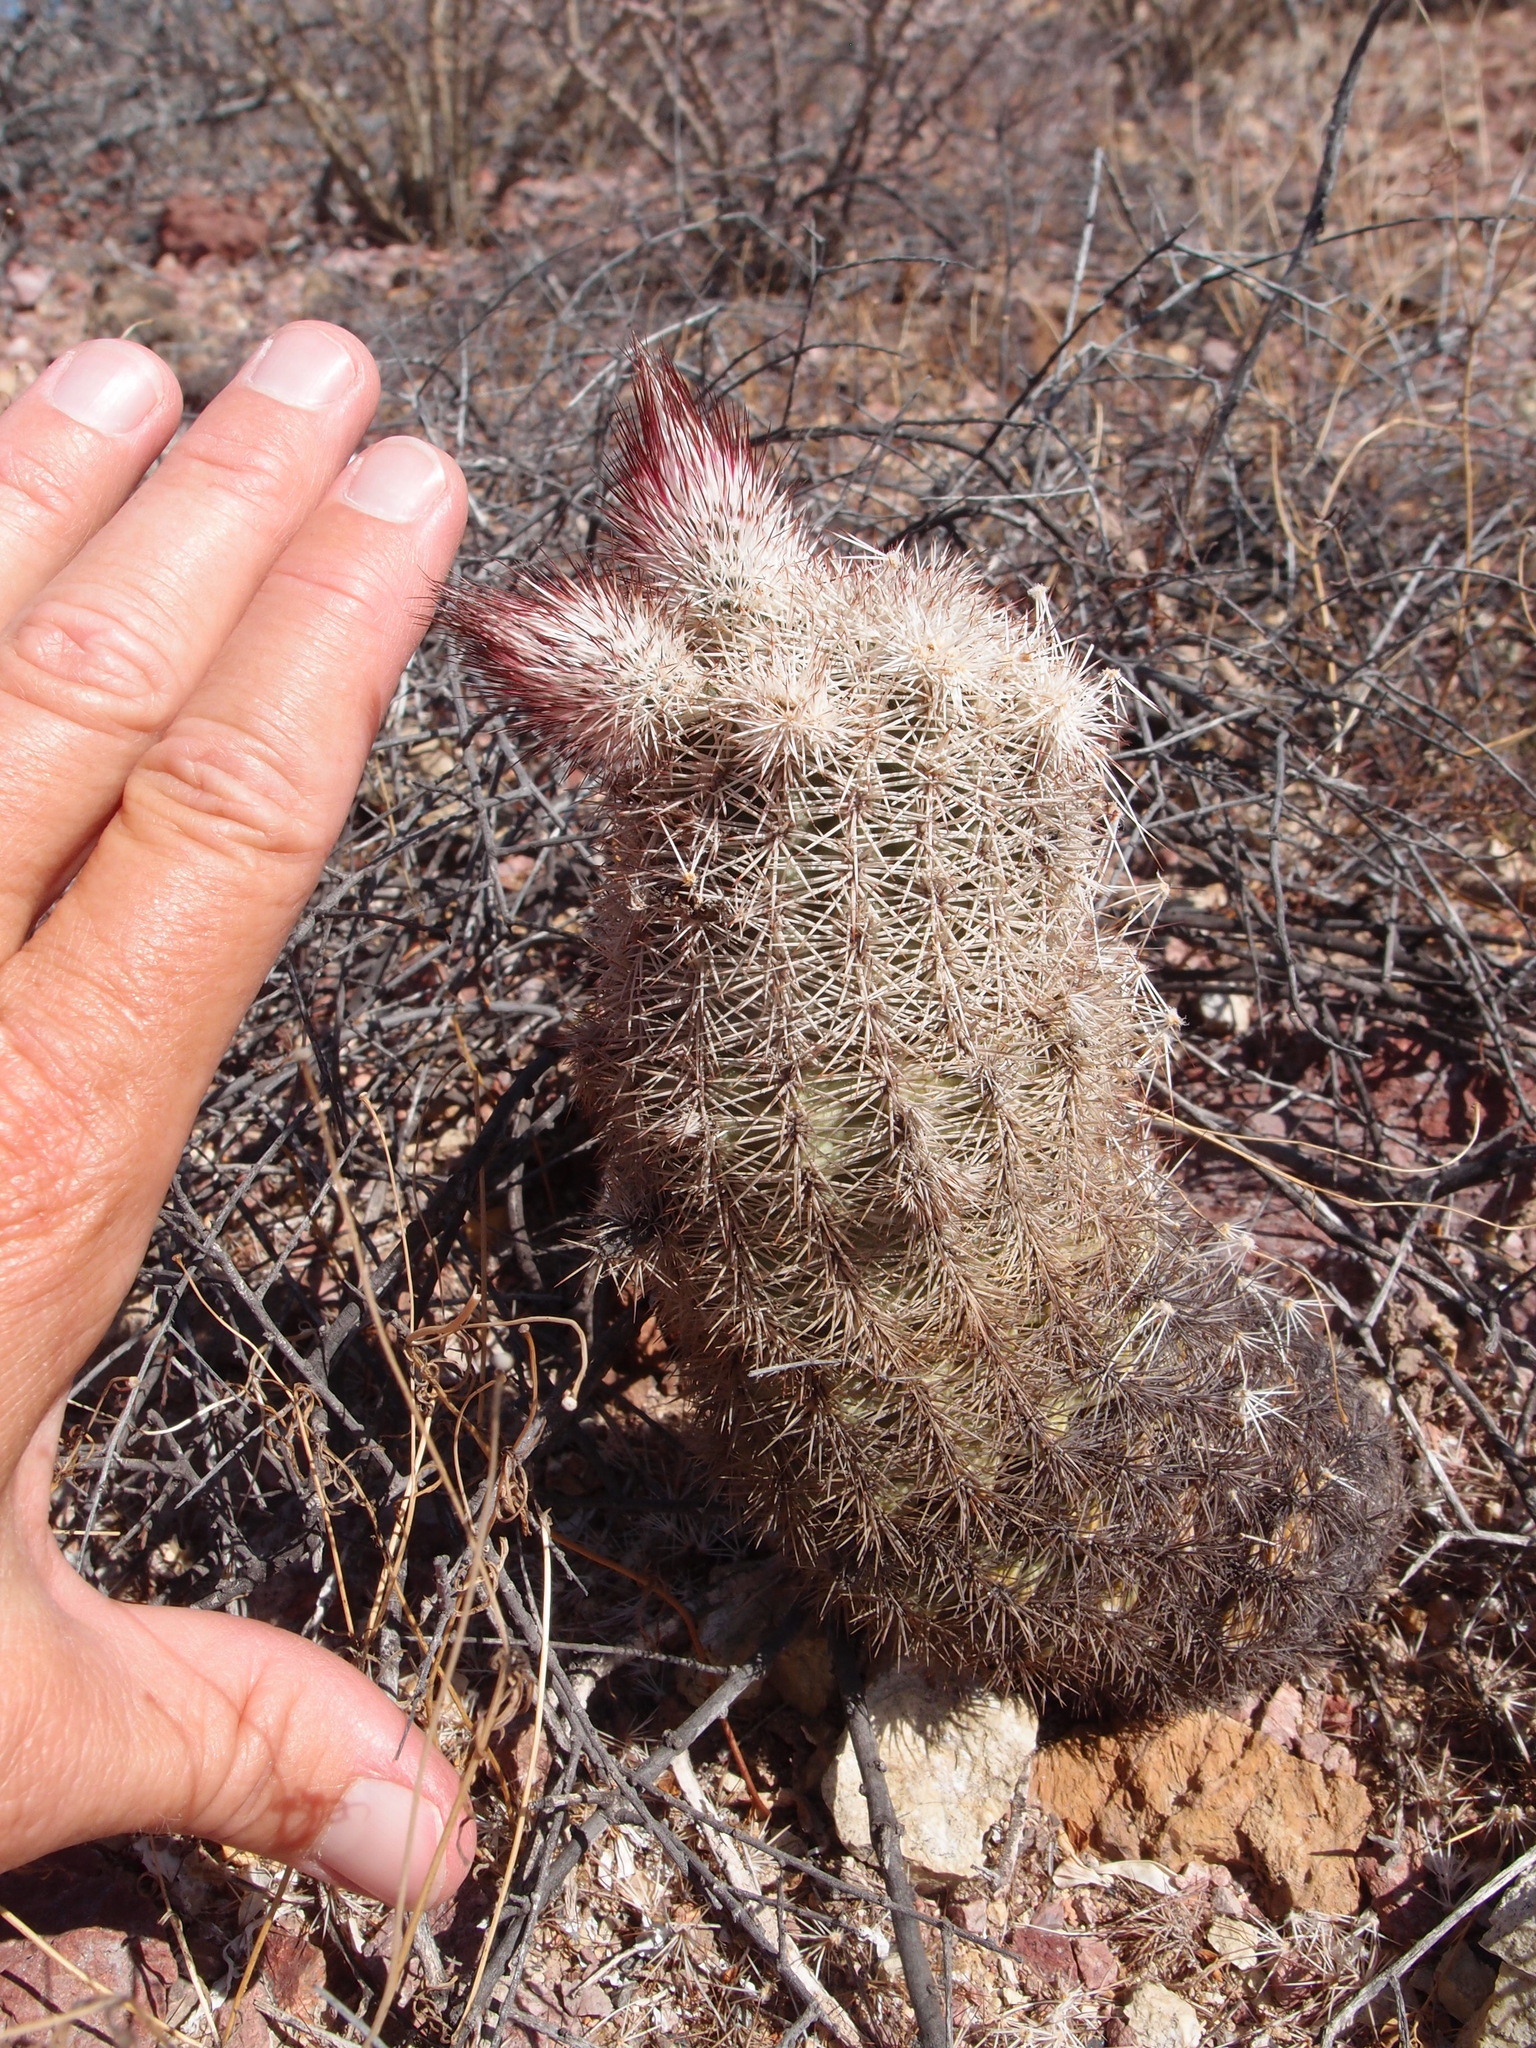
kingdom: Plantae
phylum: Tracheophyta
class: Magnoliopsida
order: Caryophyllales
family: Cactaceae
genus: Echinocereus
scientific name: Echinocereus scopulorum
